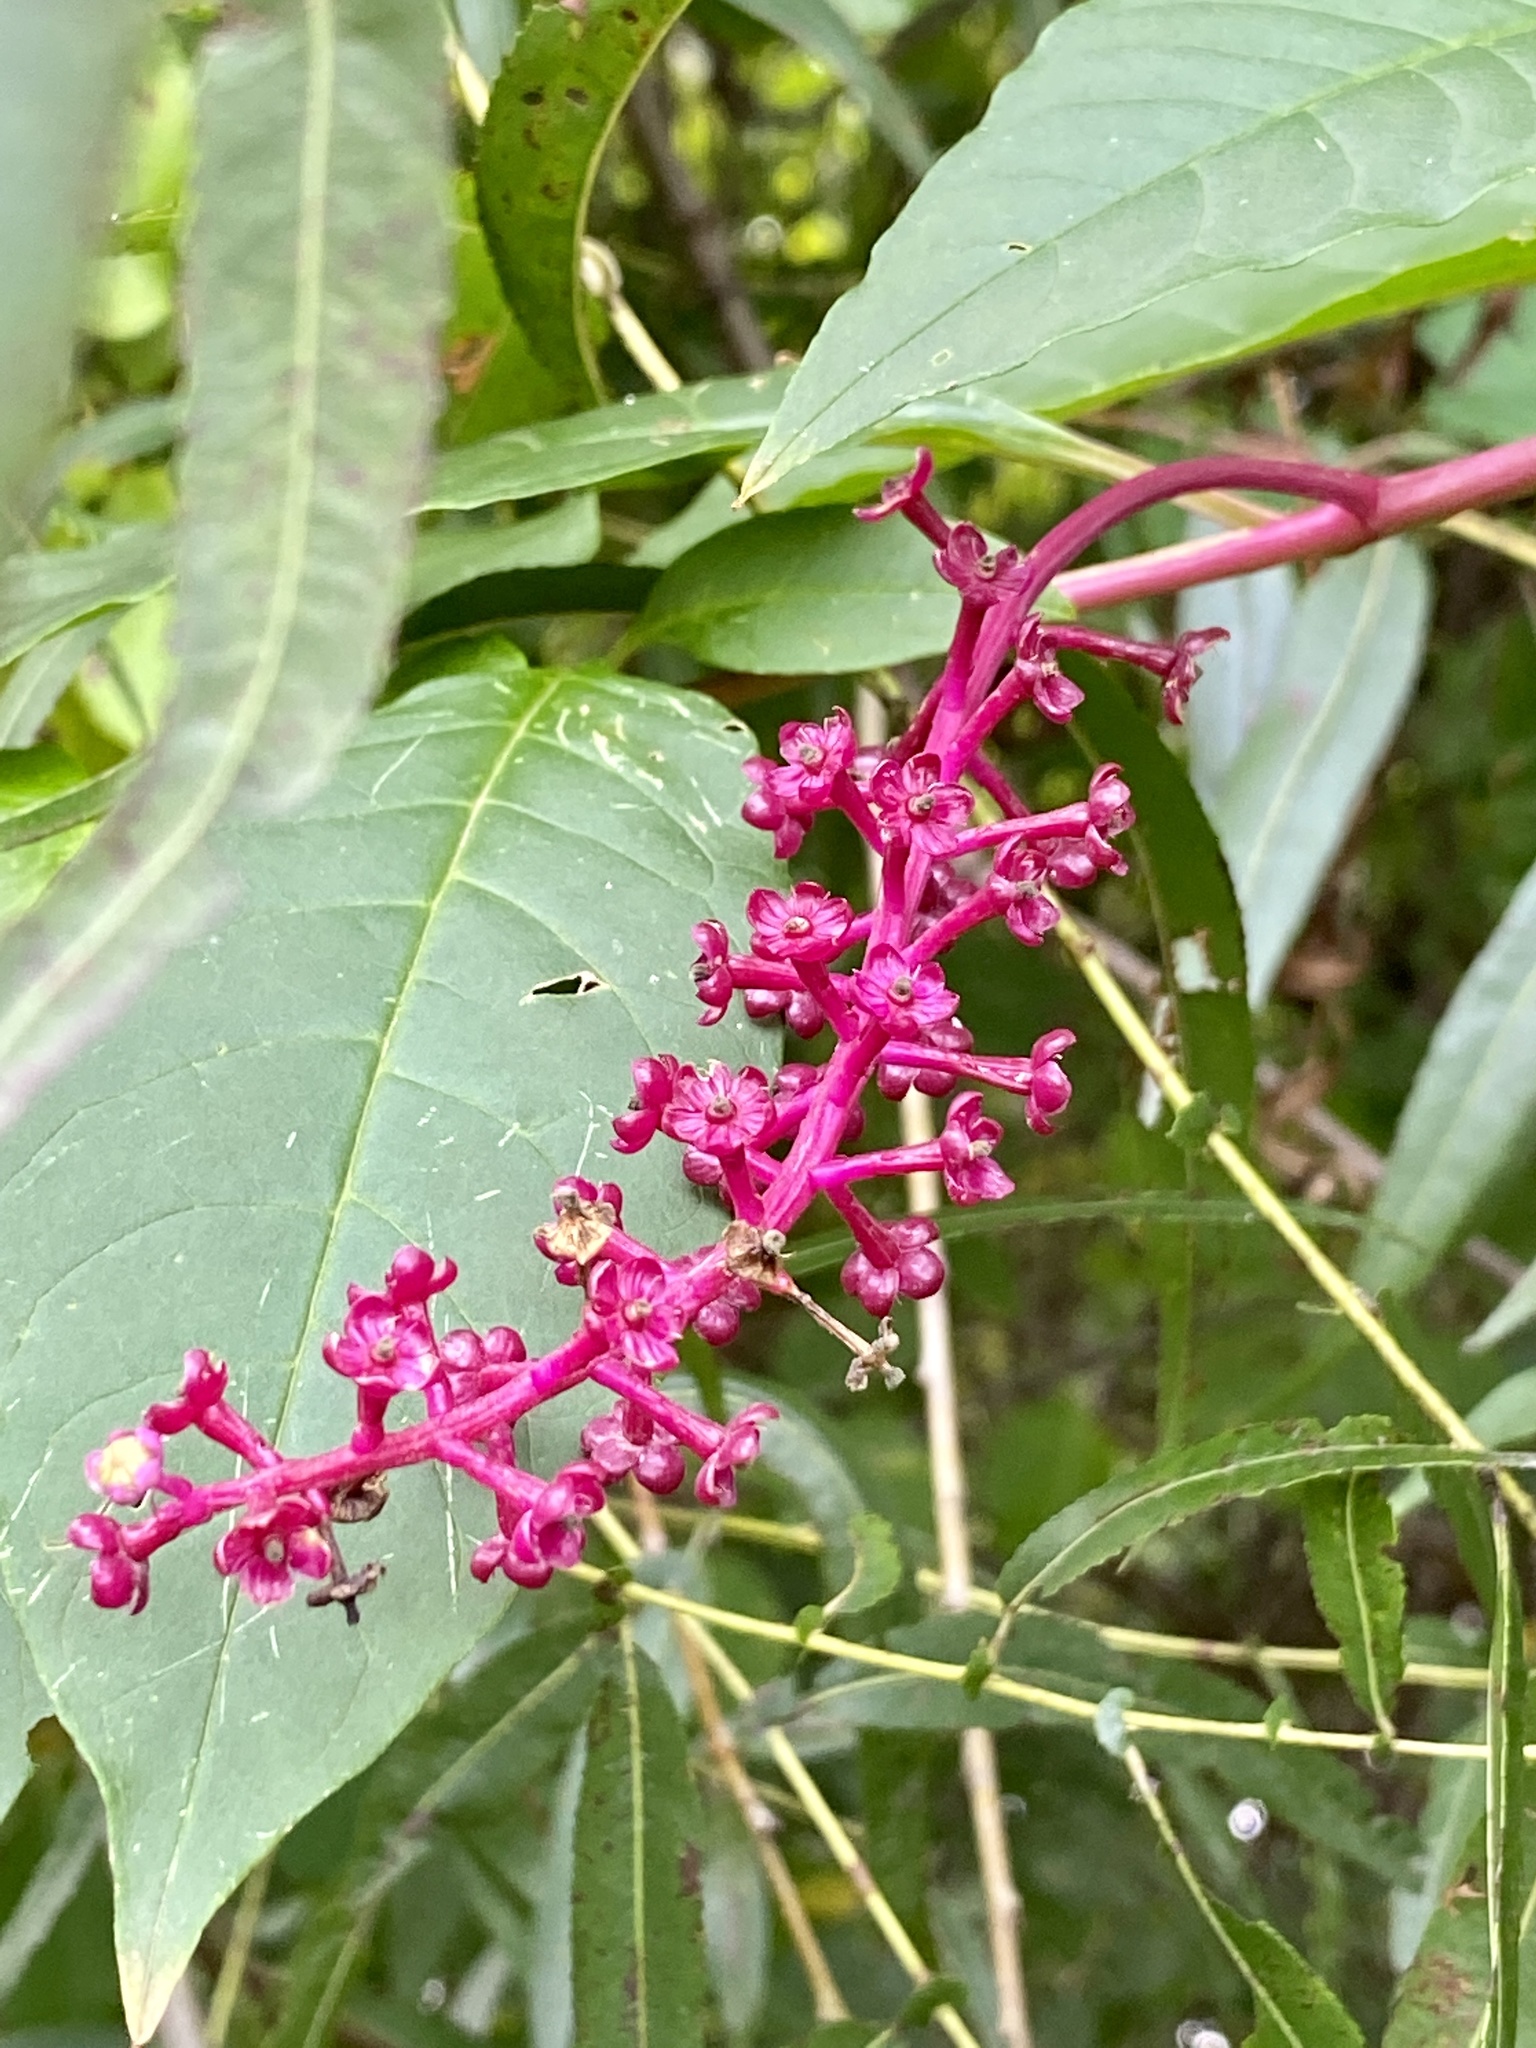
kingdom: Plantae
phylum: Tracheophyta
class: Magnoliopsida
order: Caryophyllales
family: Phytolaccaceae
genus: Phytolacca
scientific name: Phytolacca americana
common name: American pokeweed
